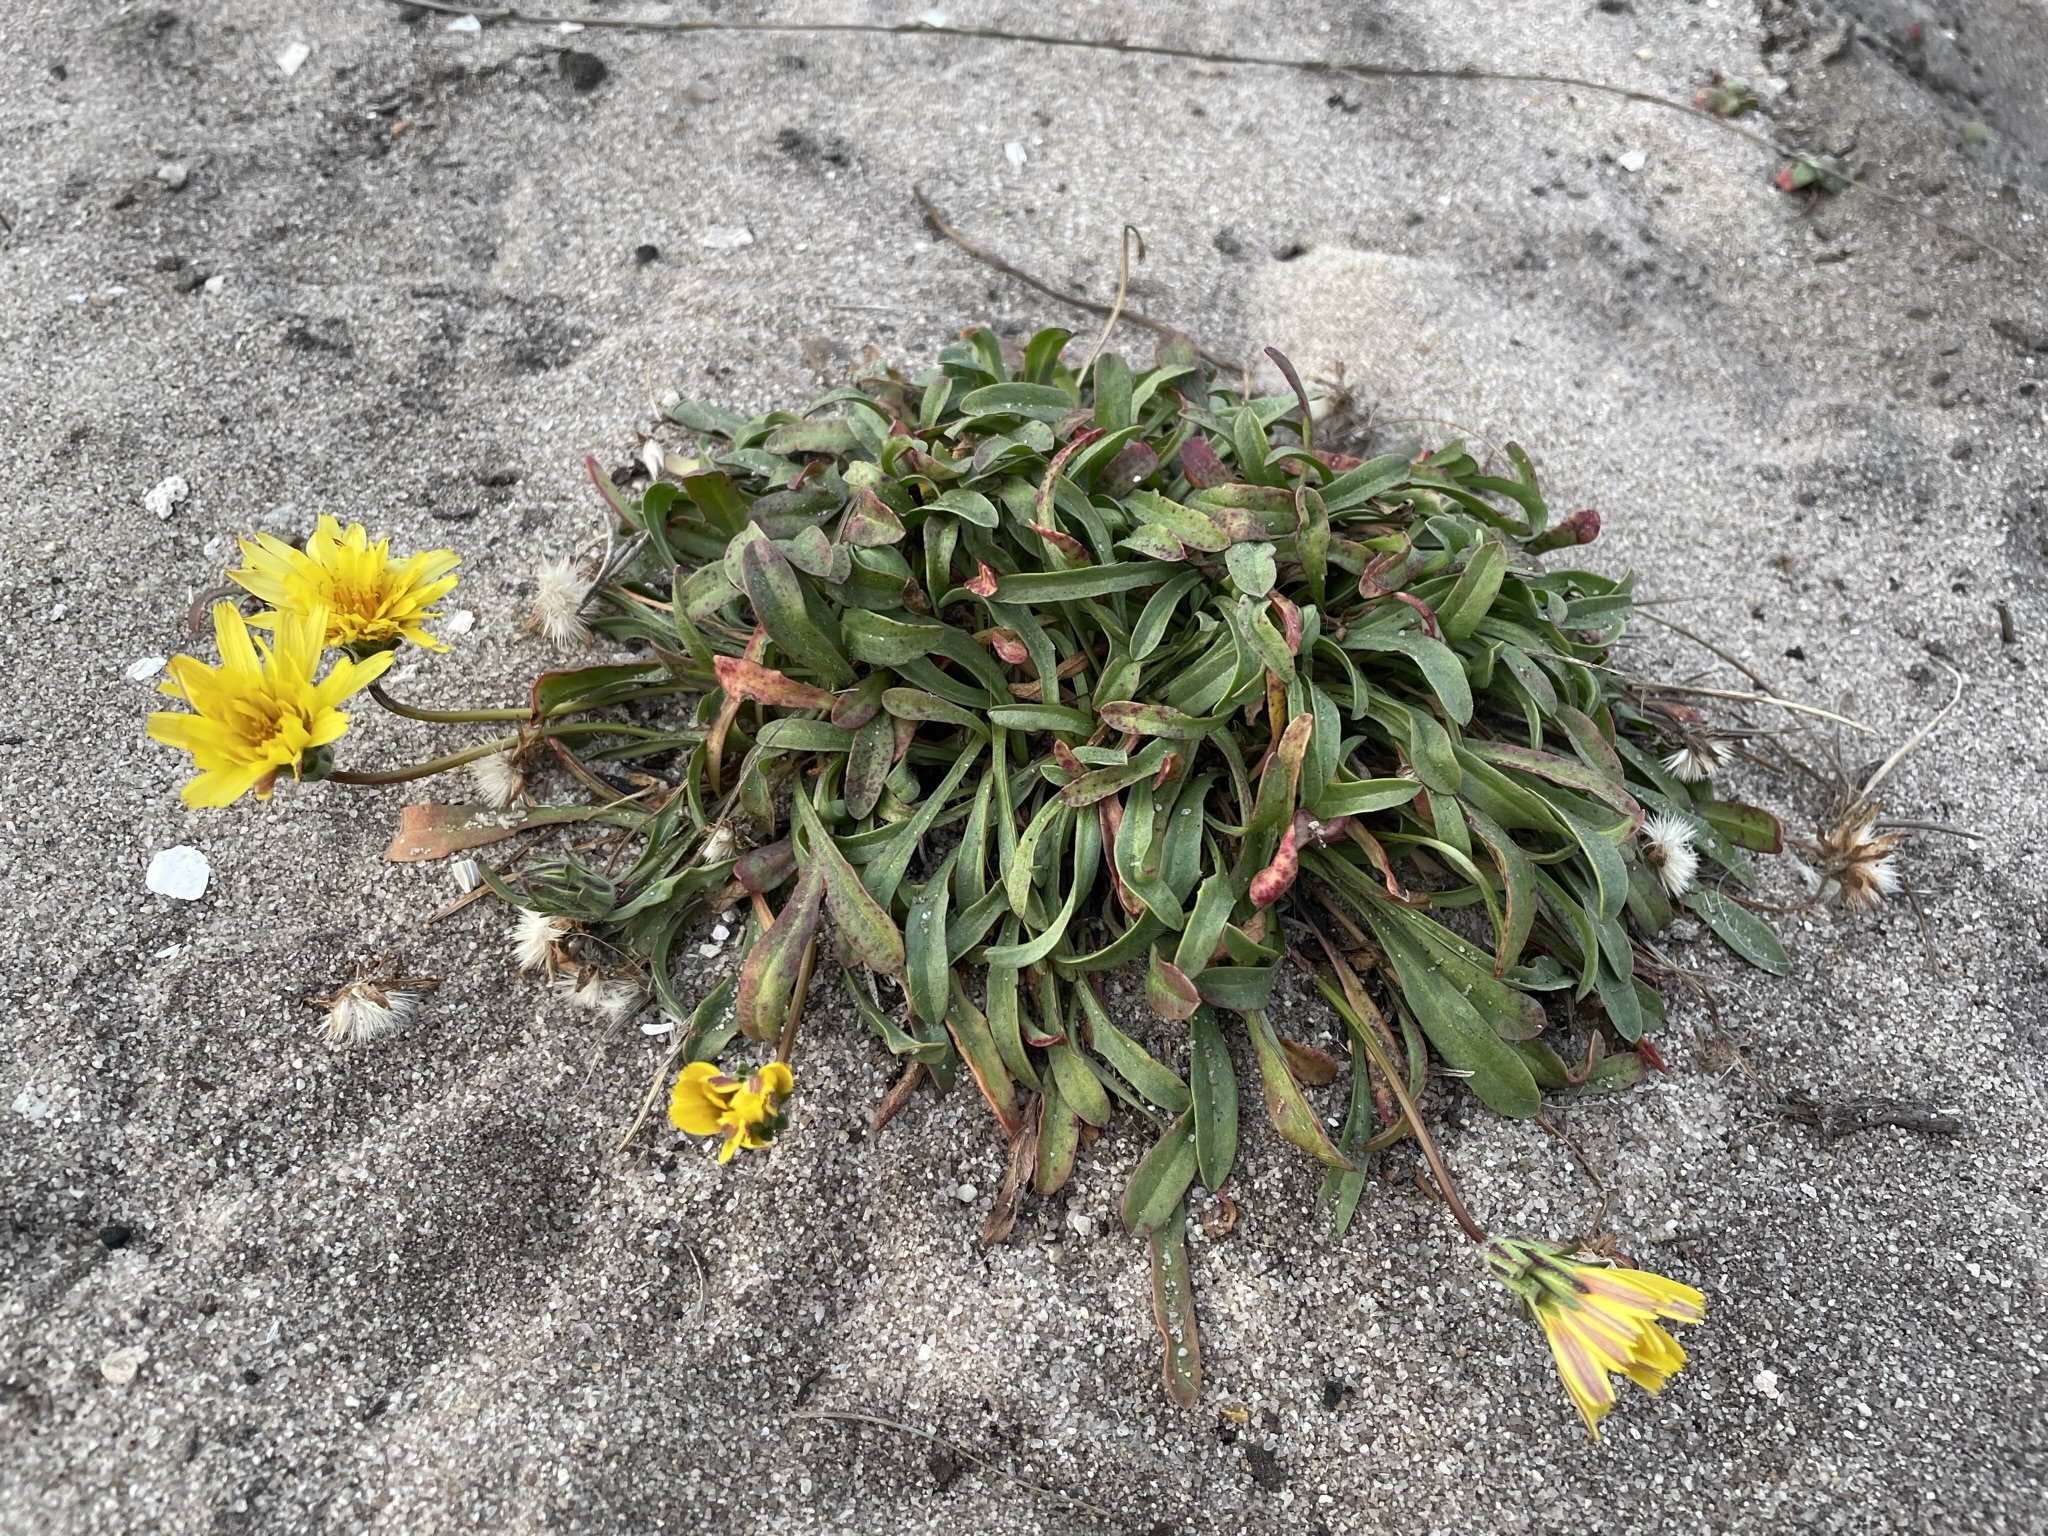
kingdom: Plantae
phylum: Tracheophyta
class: Magnoliopsida
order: Asterales
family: Asteraceae
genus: Agoseris
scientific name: Agoseris apargioides
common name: Point reyes agoseris
